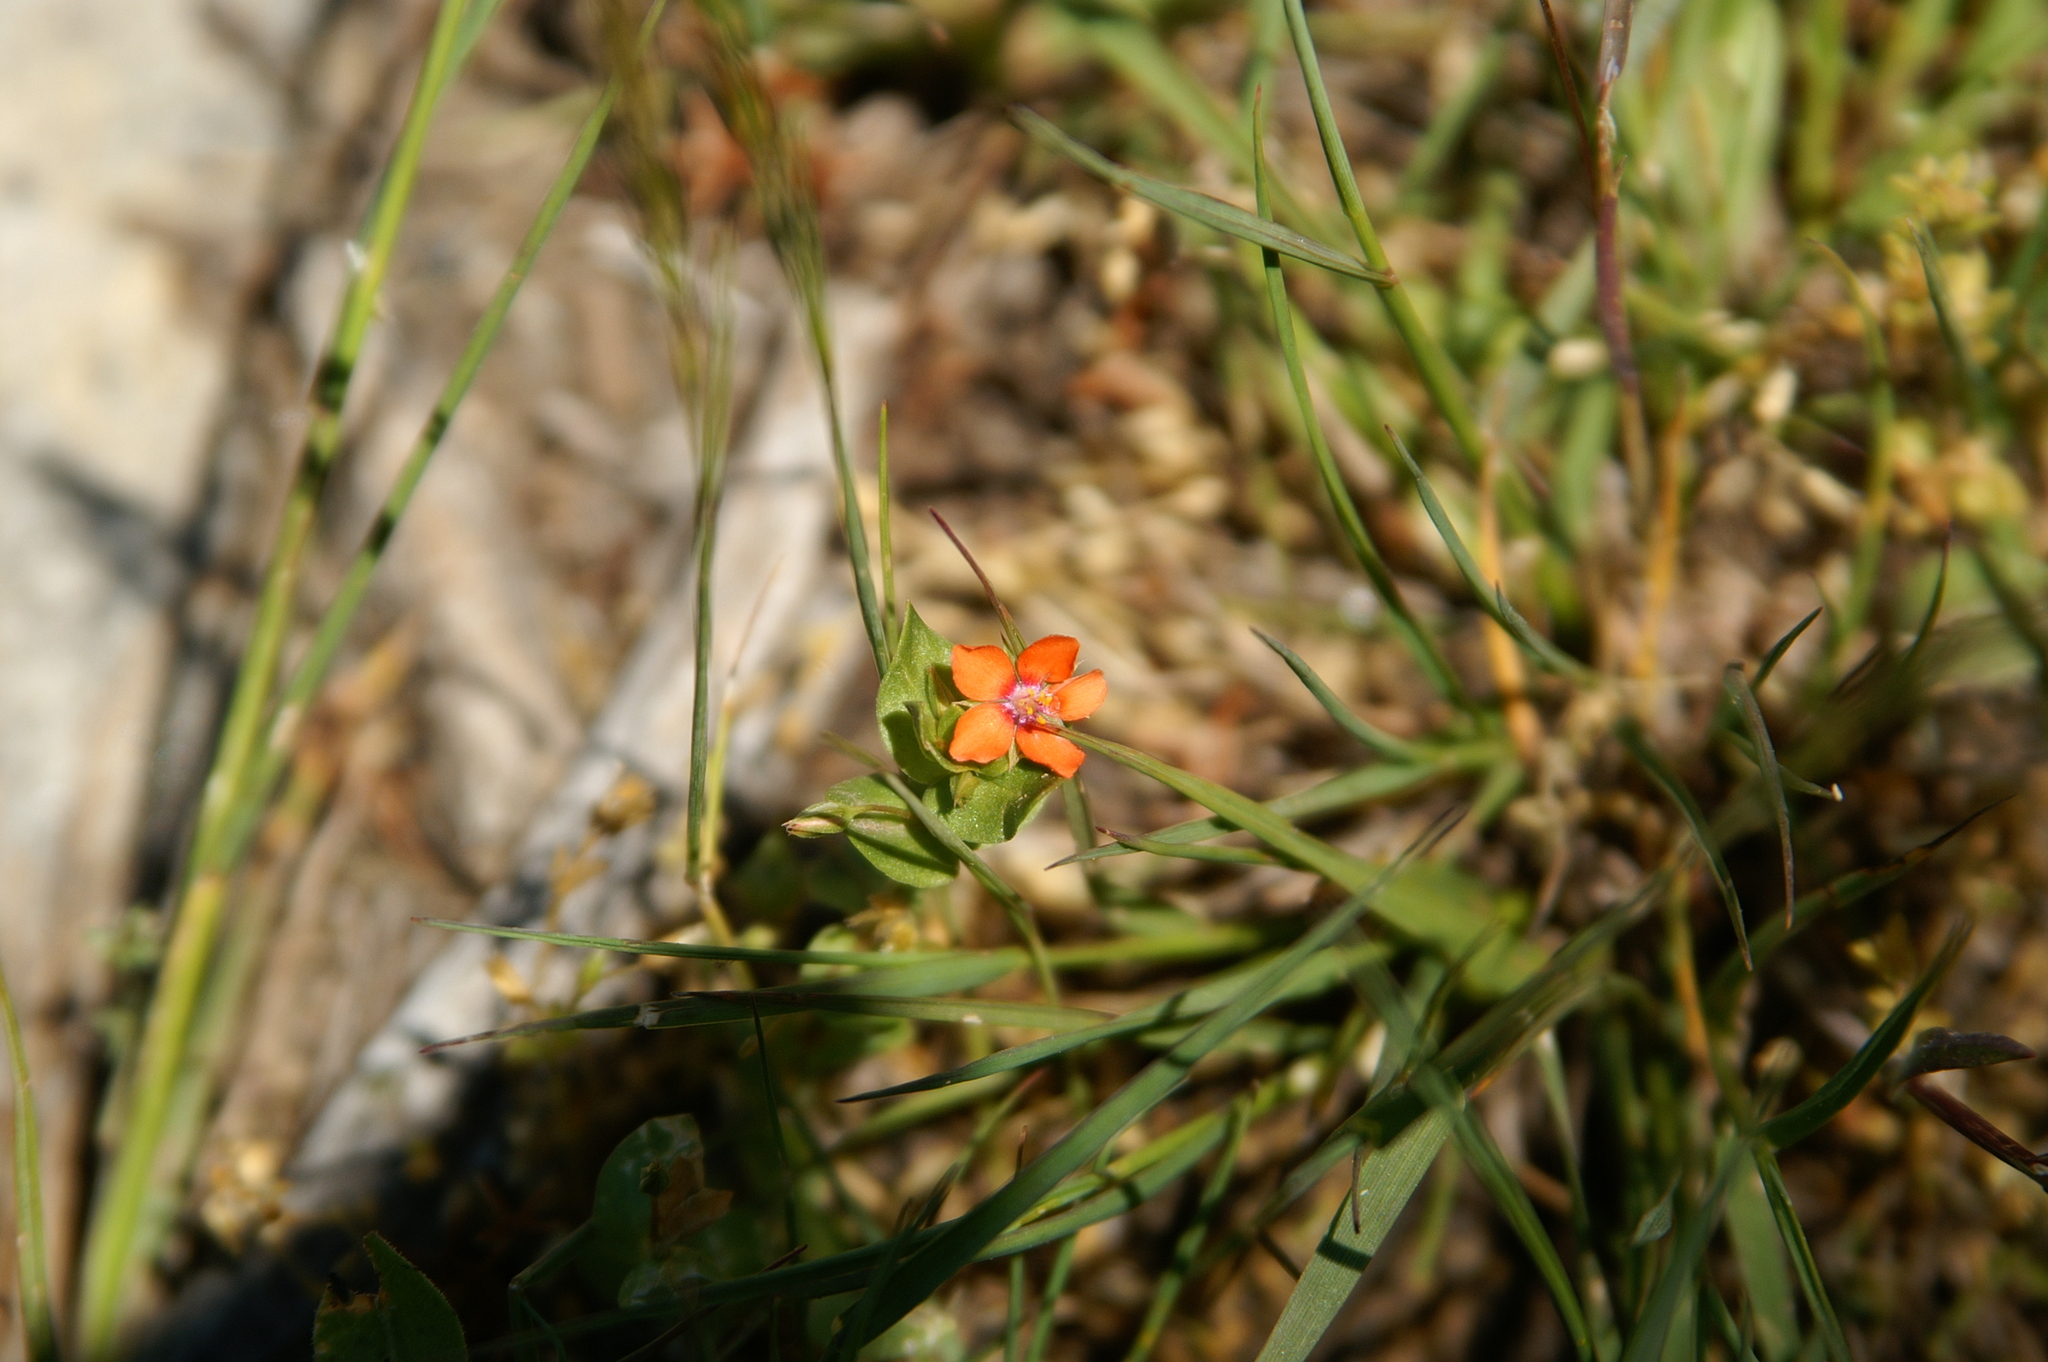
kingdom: Plantae
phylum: Tracheophyta
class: Magnoliopsida
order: Ericales
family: Primulaceae
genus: Lysimachia
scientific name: Lysimachia arvensis
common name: Scarlet pimpernel
